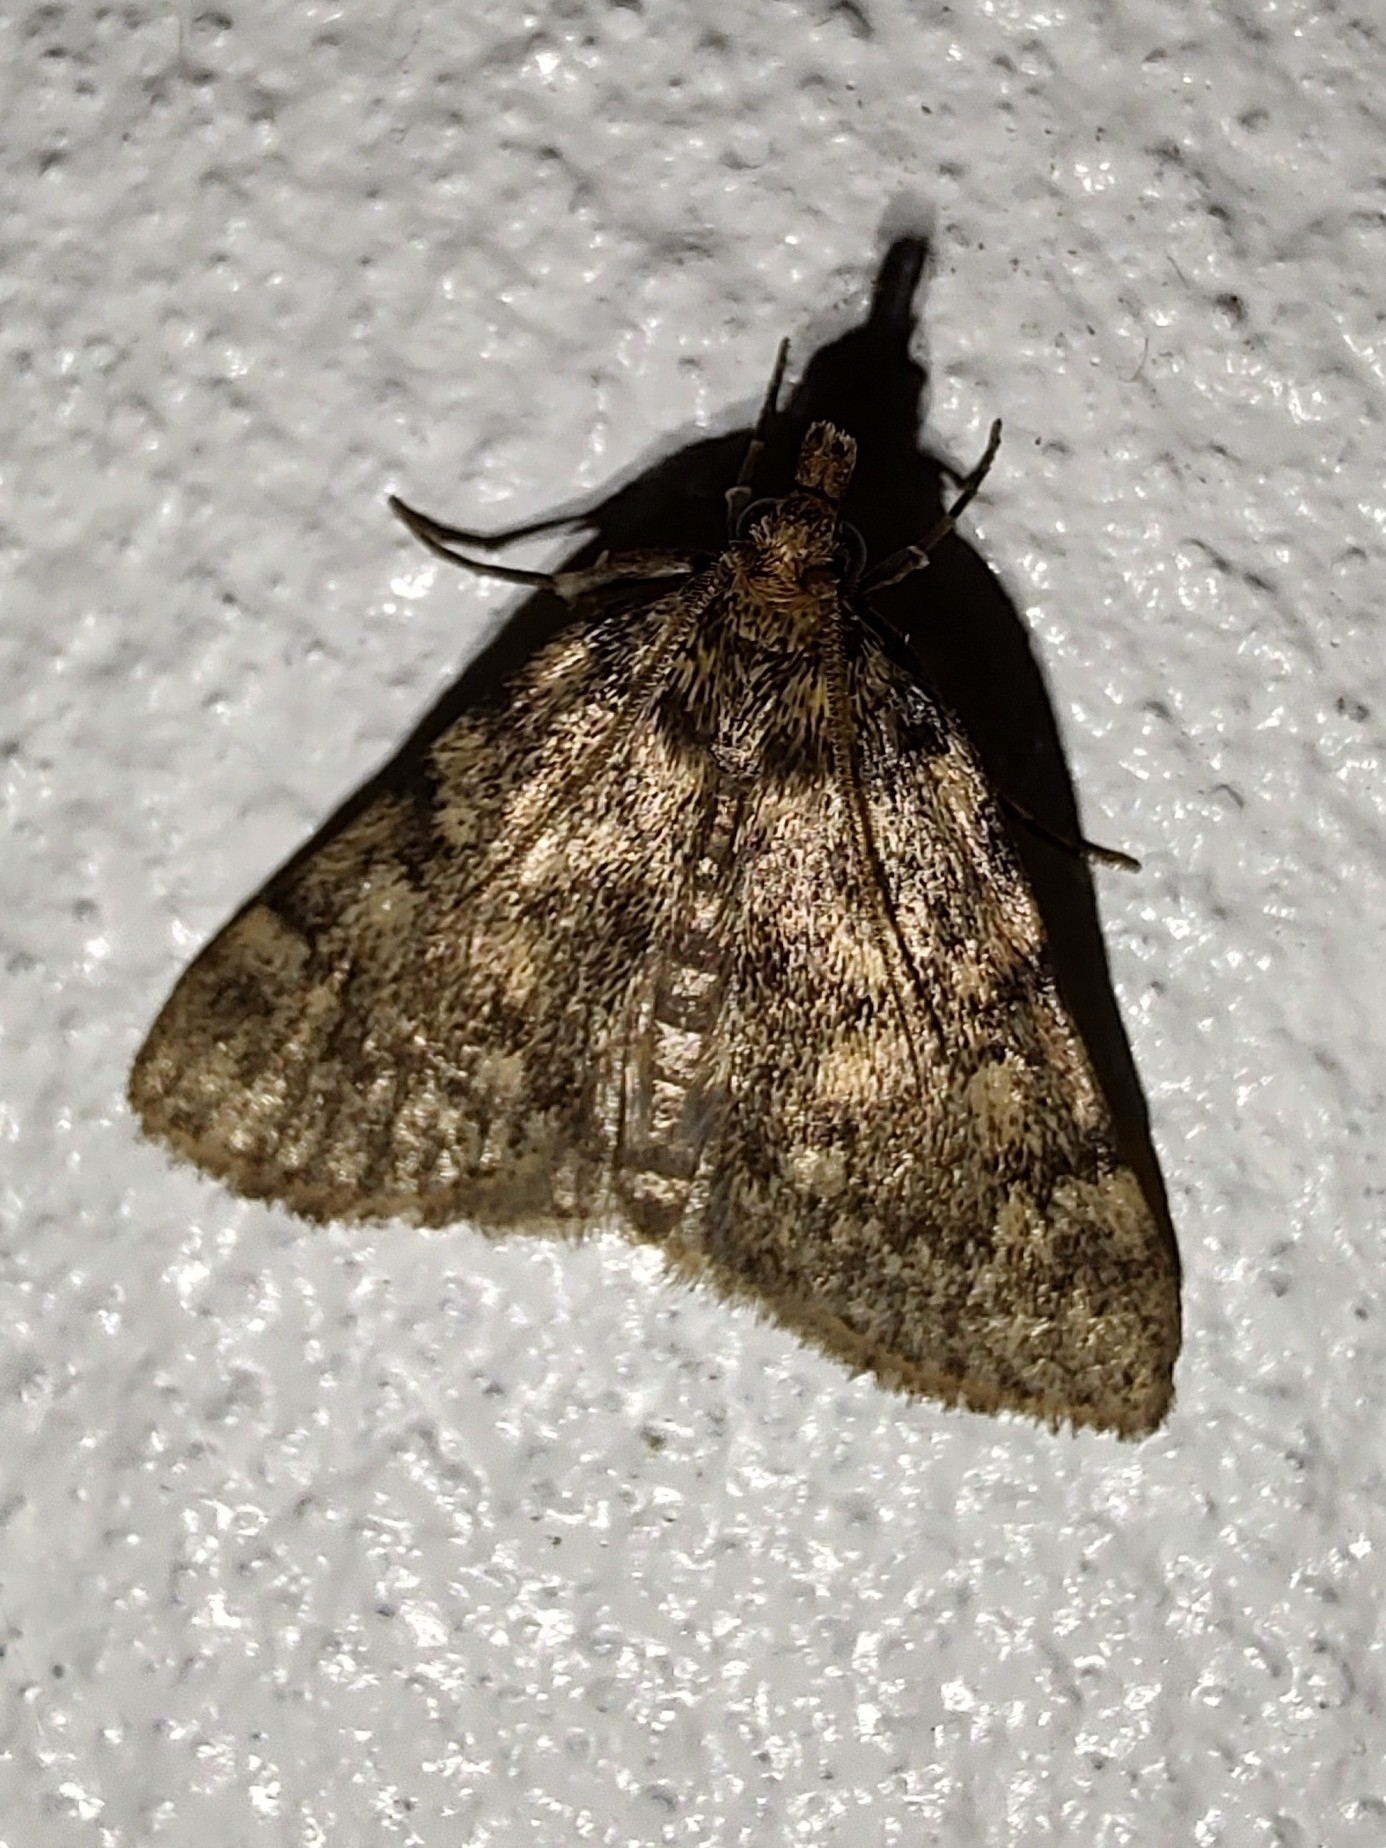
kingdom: Animalia
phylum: Arthropoda
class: Insecta
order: Lepidoptera
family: Pyralidae
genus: Aglossa
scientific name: Aglossa pinguinalis
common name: Large tabby
